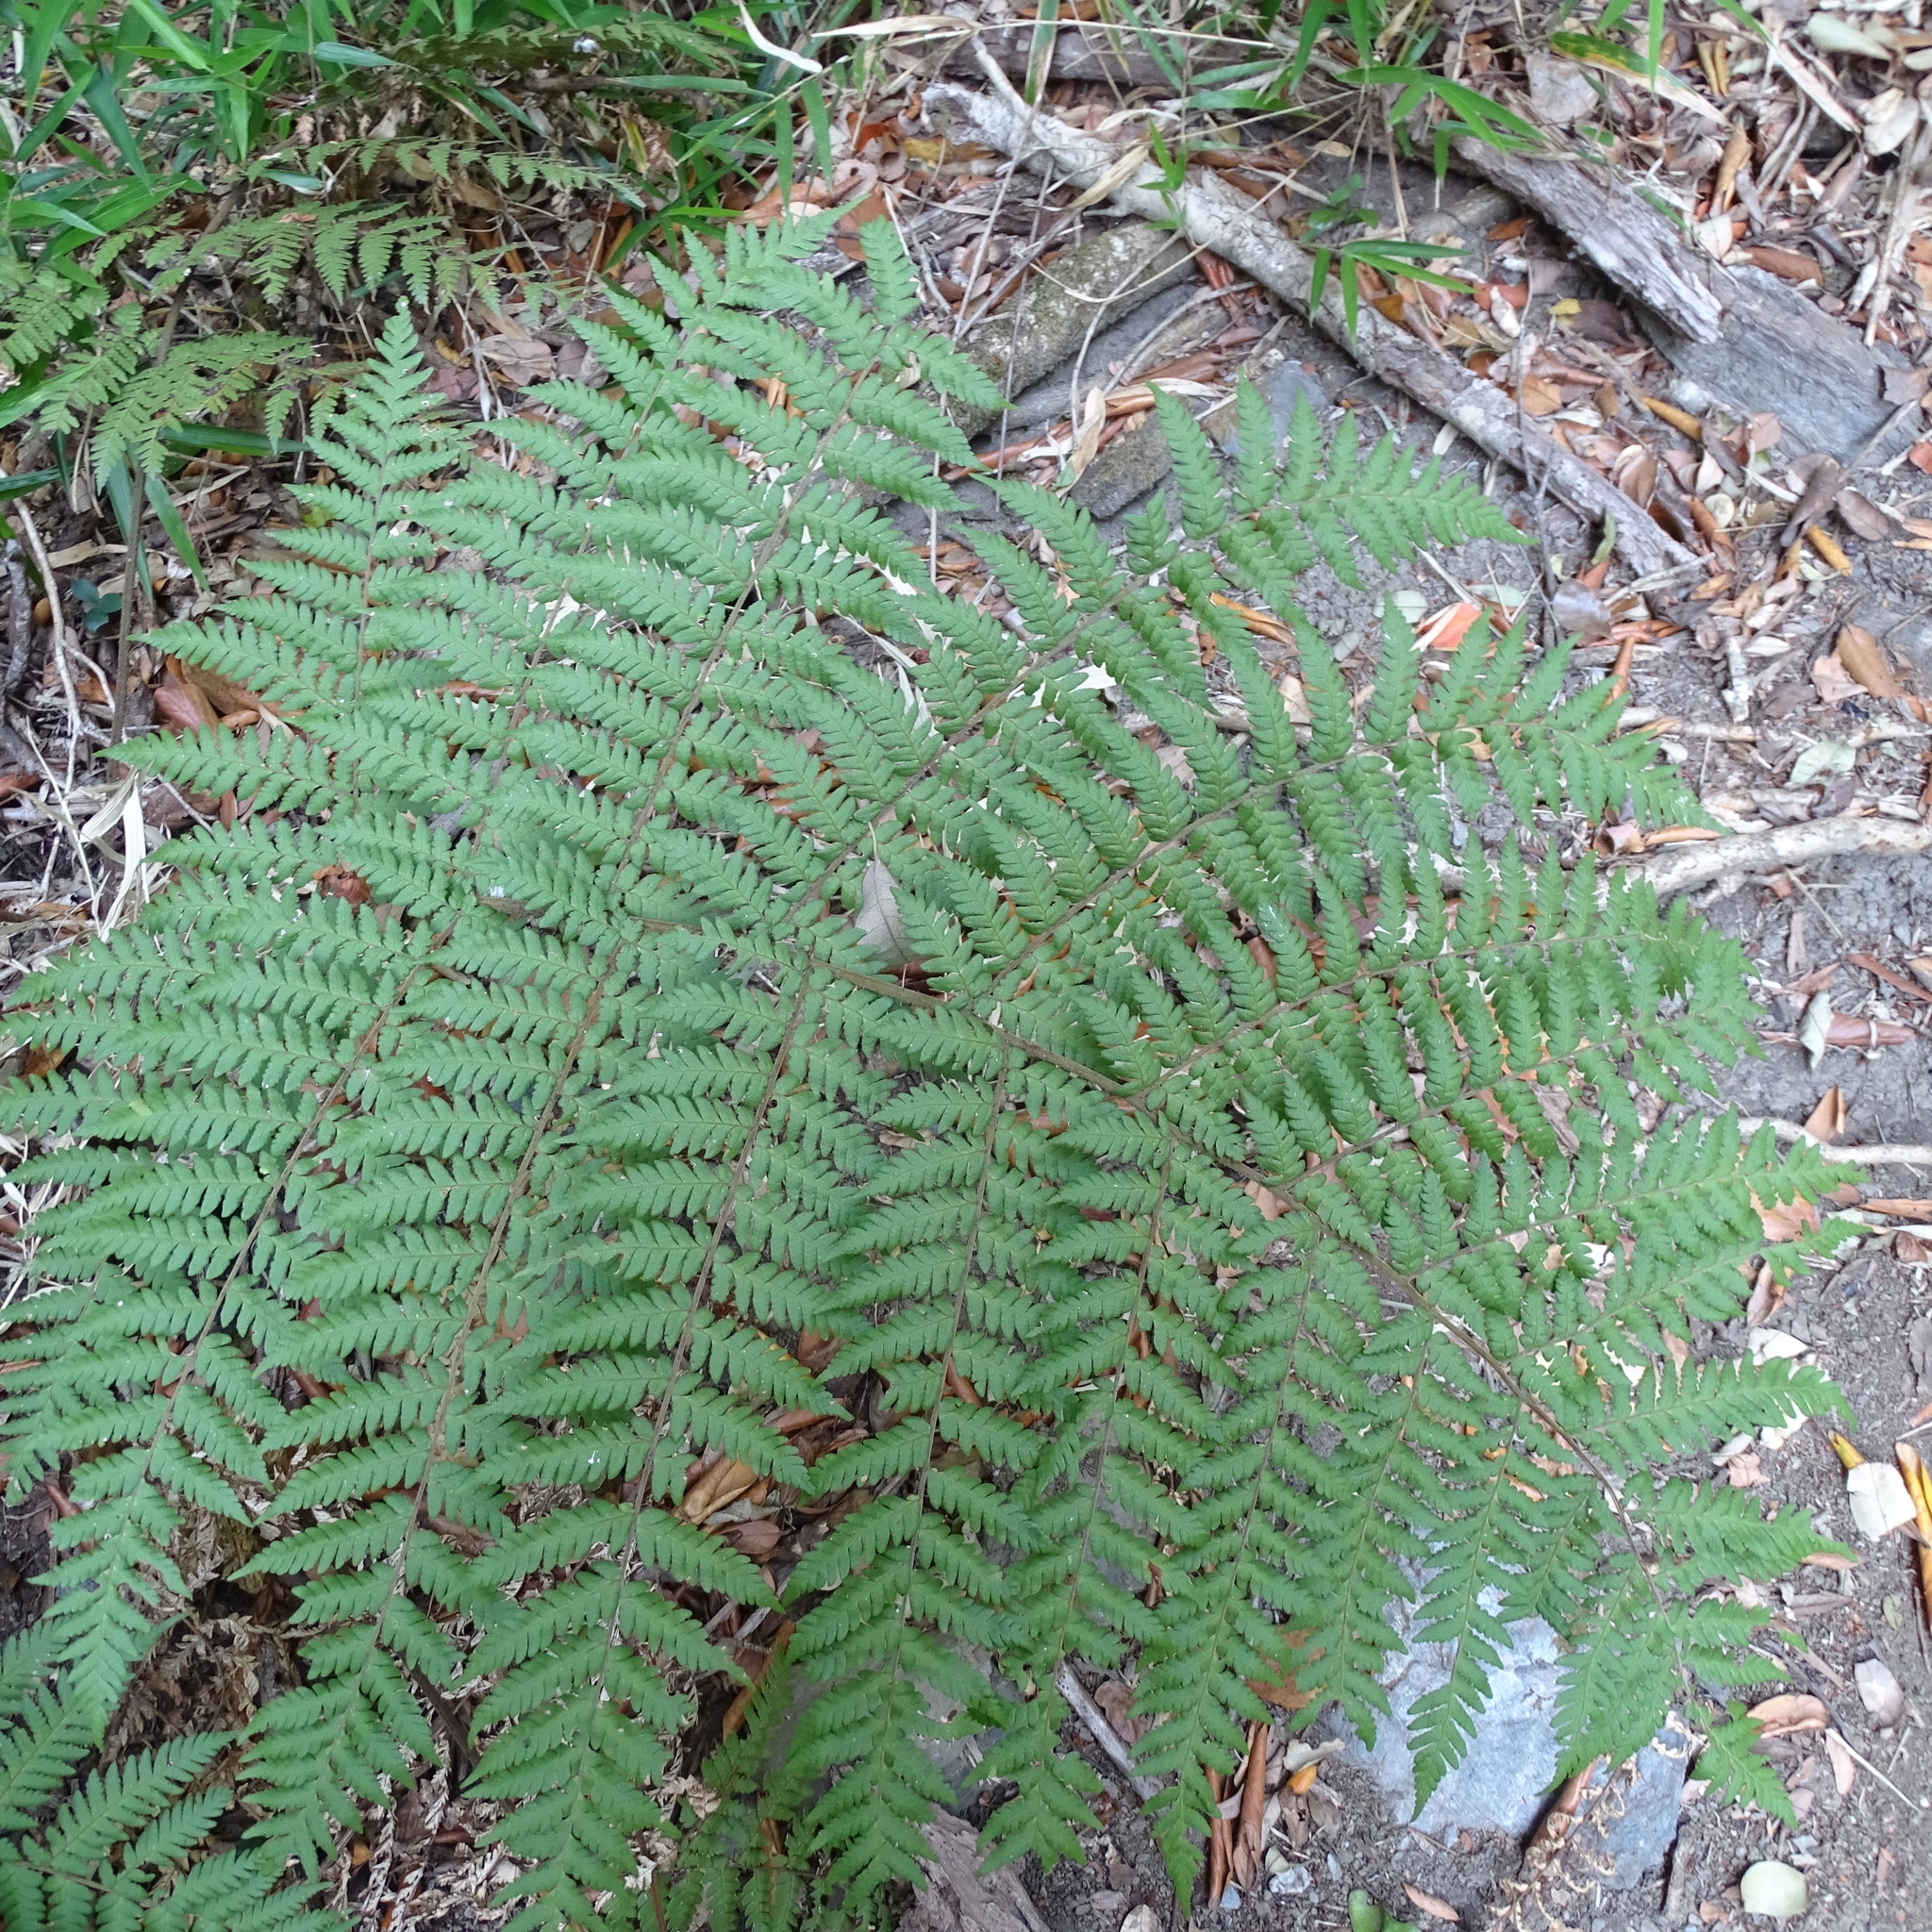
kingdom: Plantae
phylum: Tracheophyta
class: Polypodiopsida
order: Polypodiales
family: Dryopteridaceae
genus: Megalastrum
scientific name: Megalastrum spectabile
